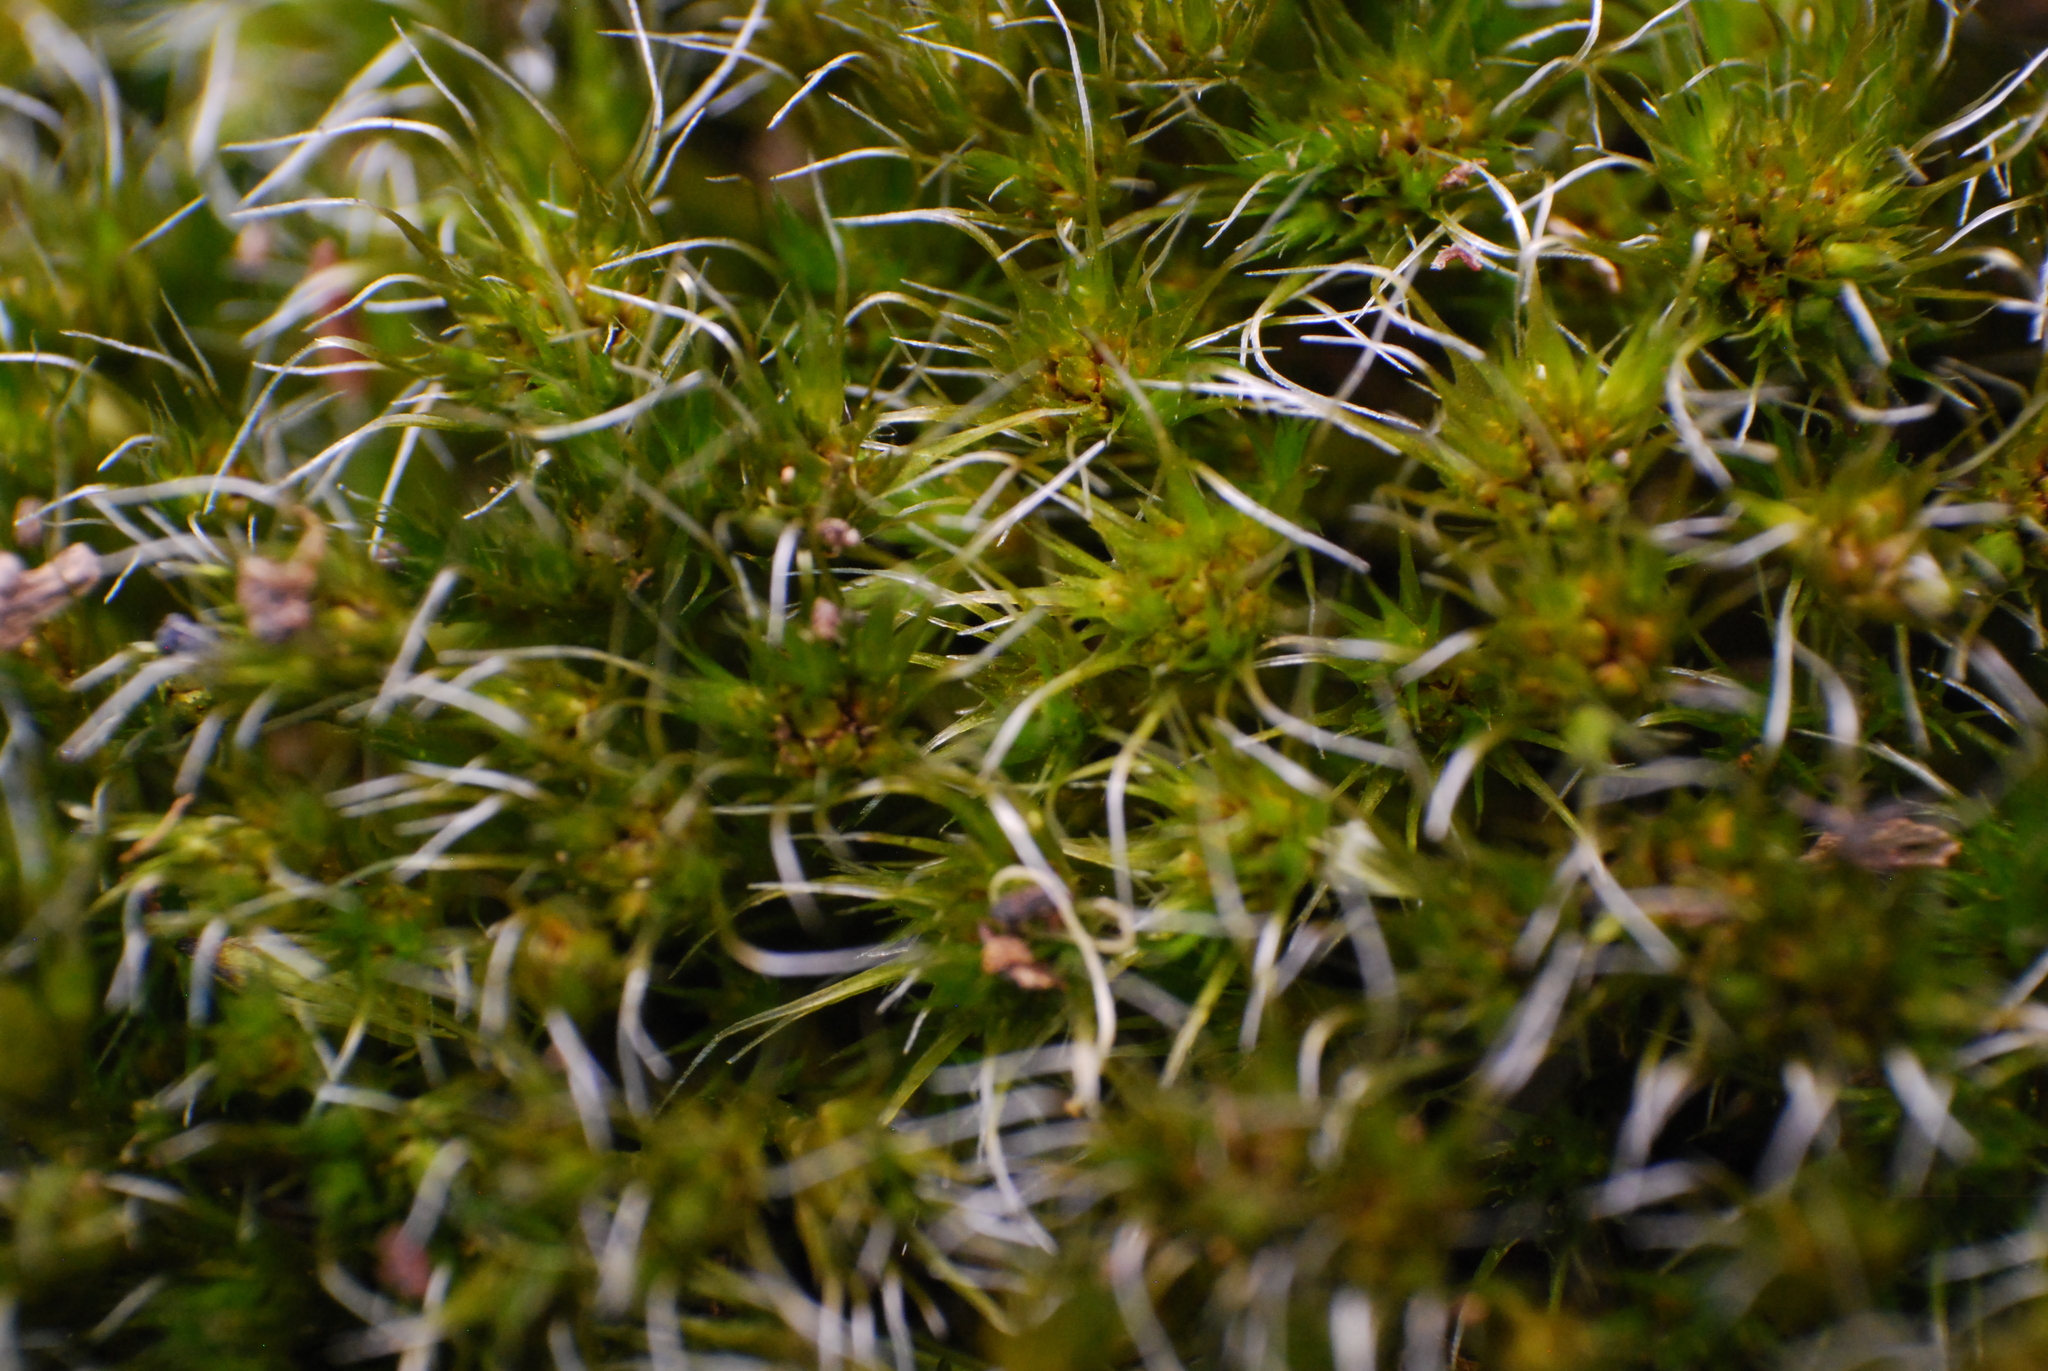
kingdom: Plantae
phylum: Bryophyta
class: Bryopsida
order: Dicranales
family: Leucobryaceae
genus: Campylopus
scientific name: Campylopus introflexus
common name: Heath star moss
